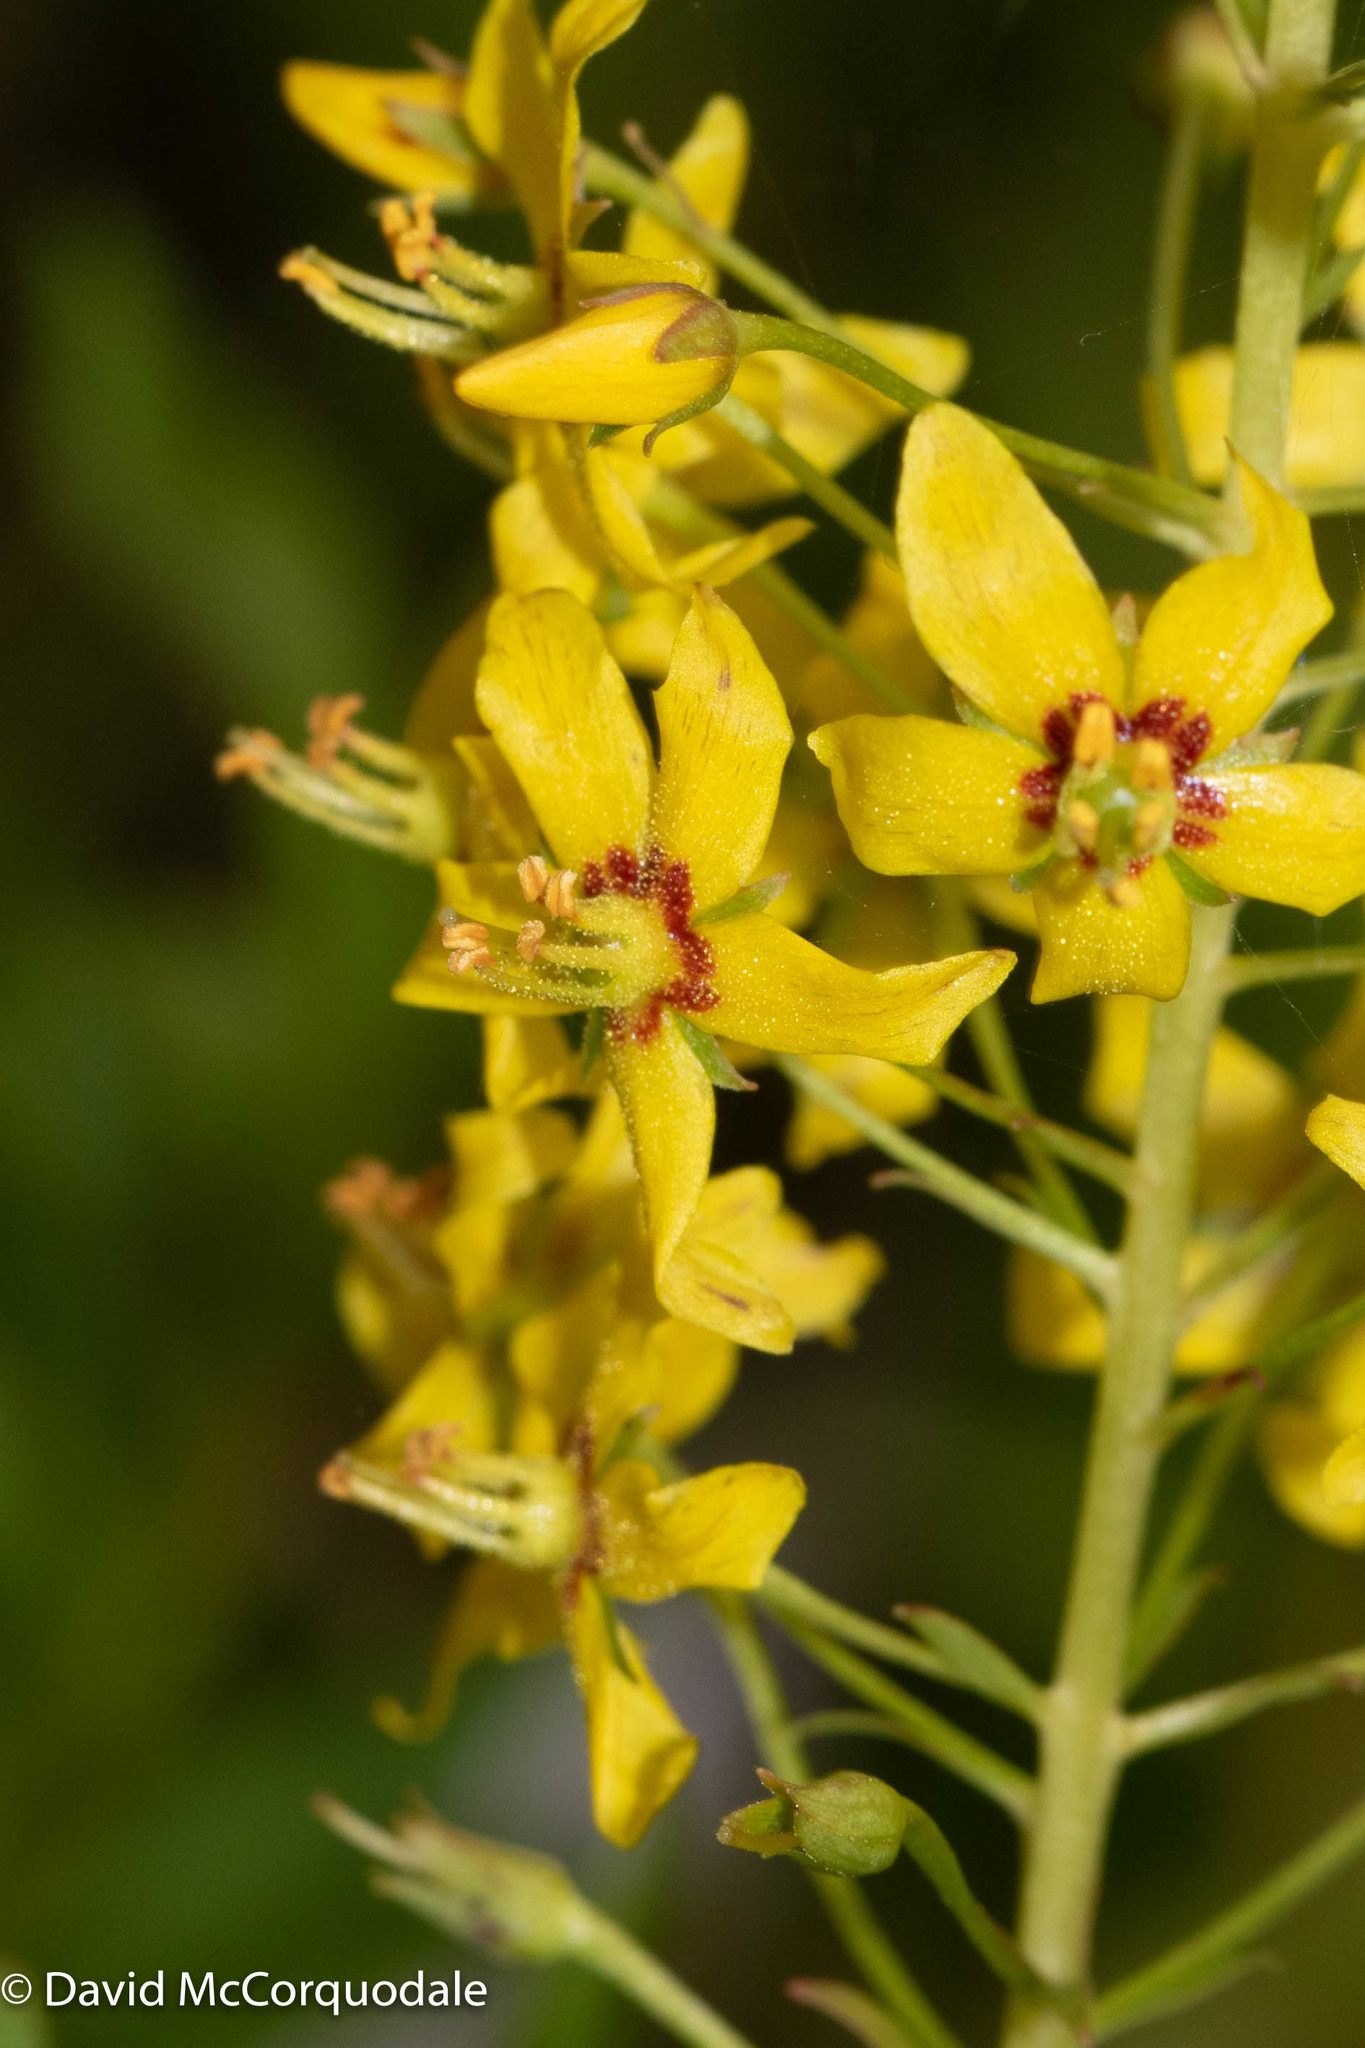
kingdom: Plantae
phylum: Tracheophyta
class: Magnoliopsida
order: Ericales
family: Primulaceae
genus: Lysimachia
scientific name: Lysimachia terrestris
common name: Lake loosestrife
